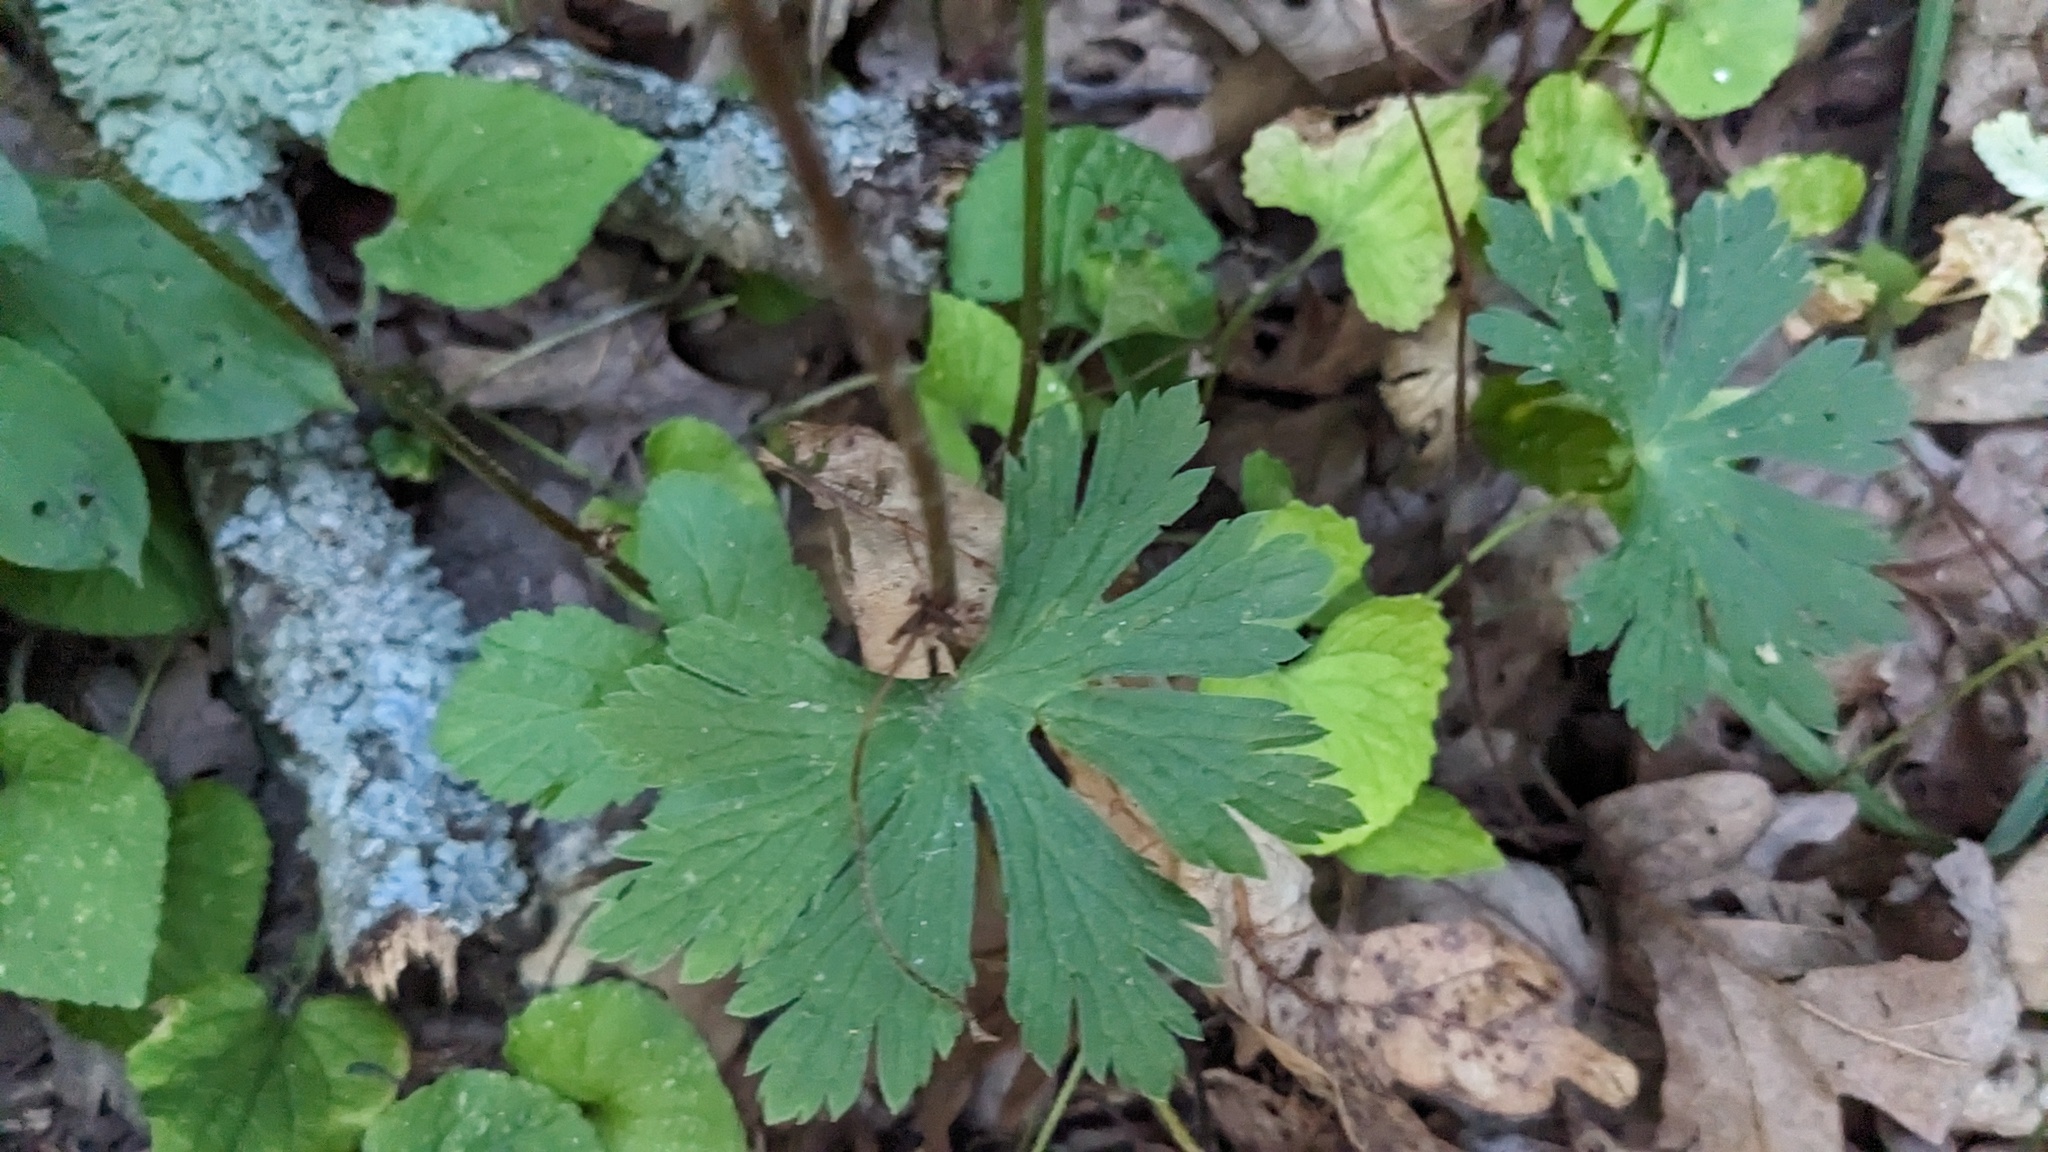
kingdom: Plantae
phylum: Tracheophyta
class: Magnoliopsida
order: Geraniales
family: Geraniaceae
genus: Geranium
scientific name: Geranium maculatum
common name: Spotted geranium
